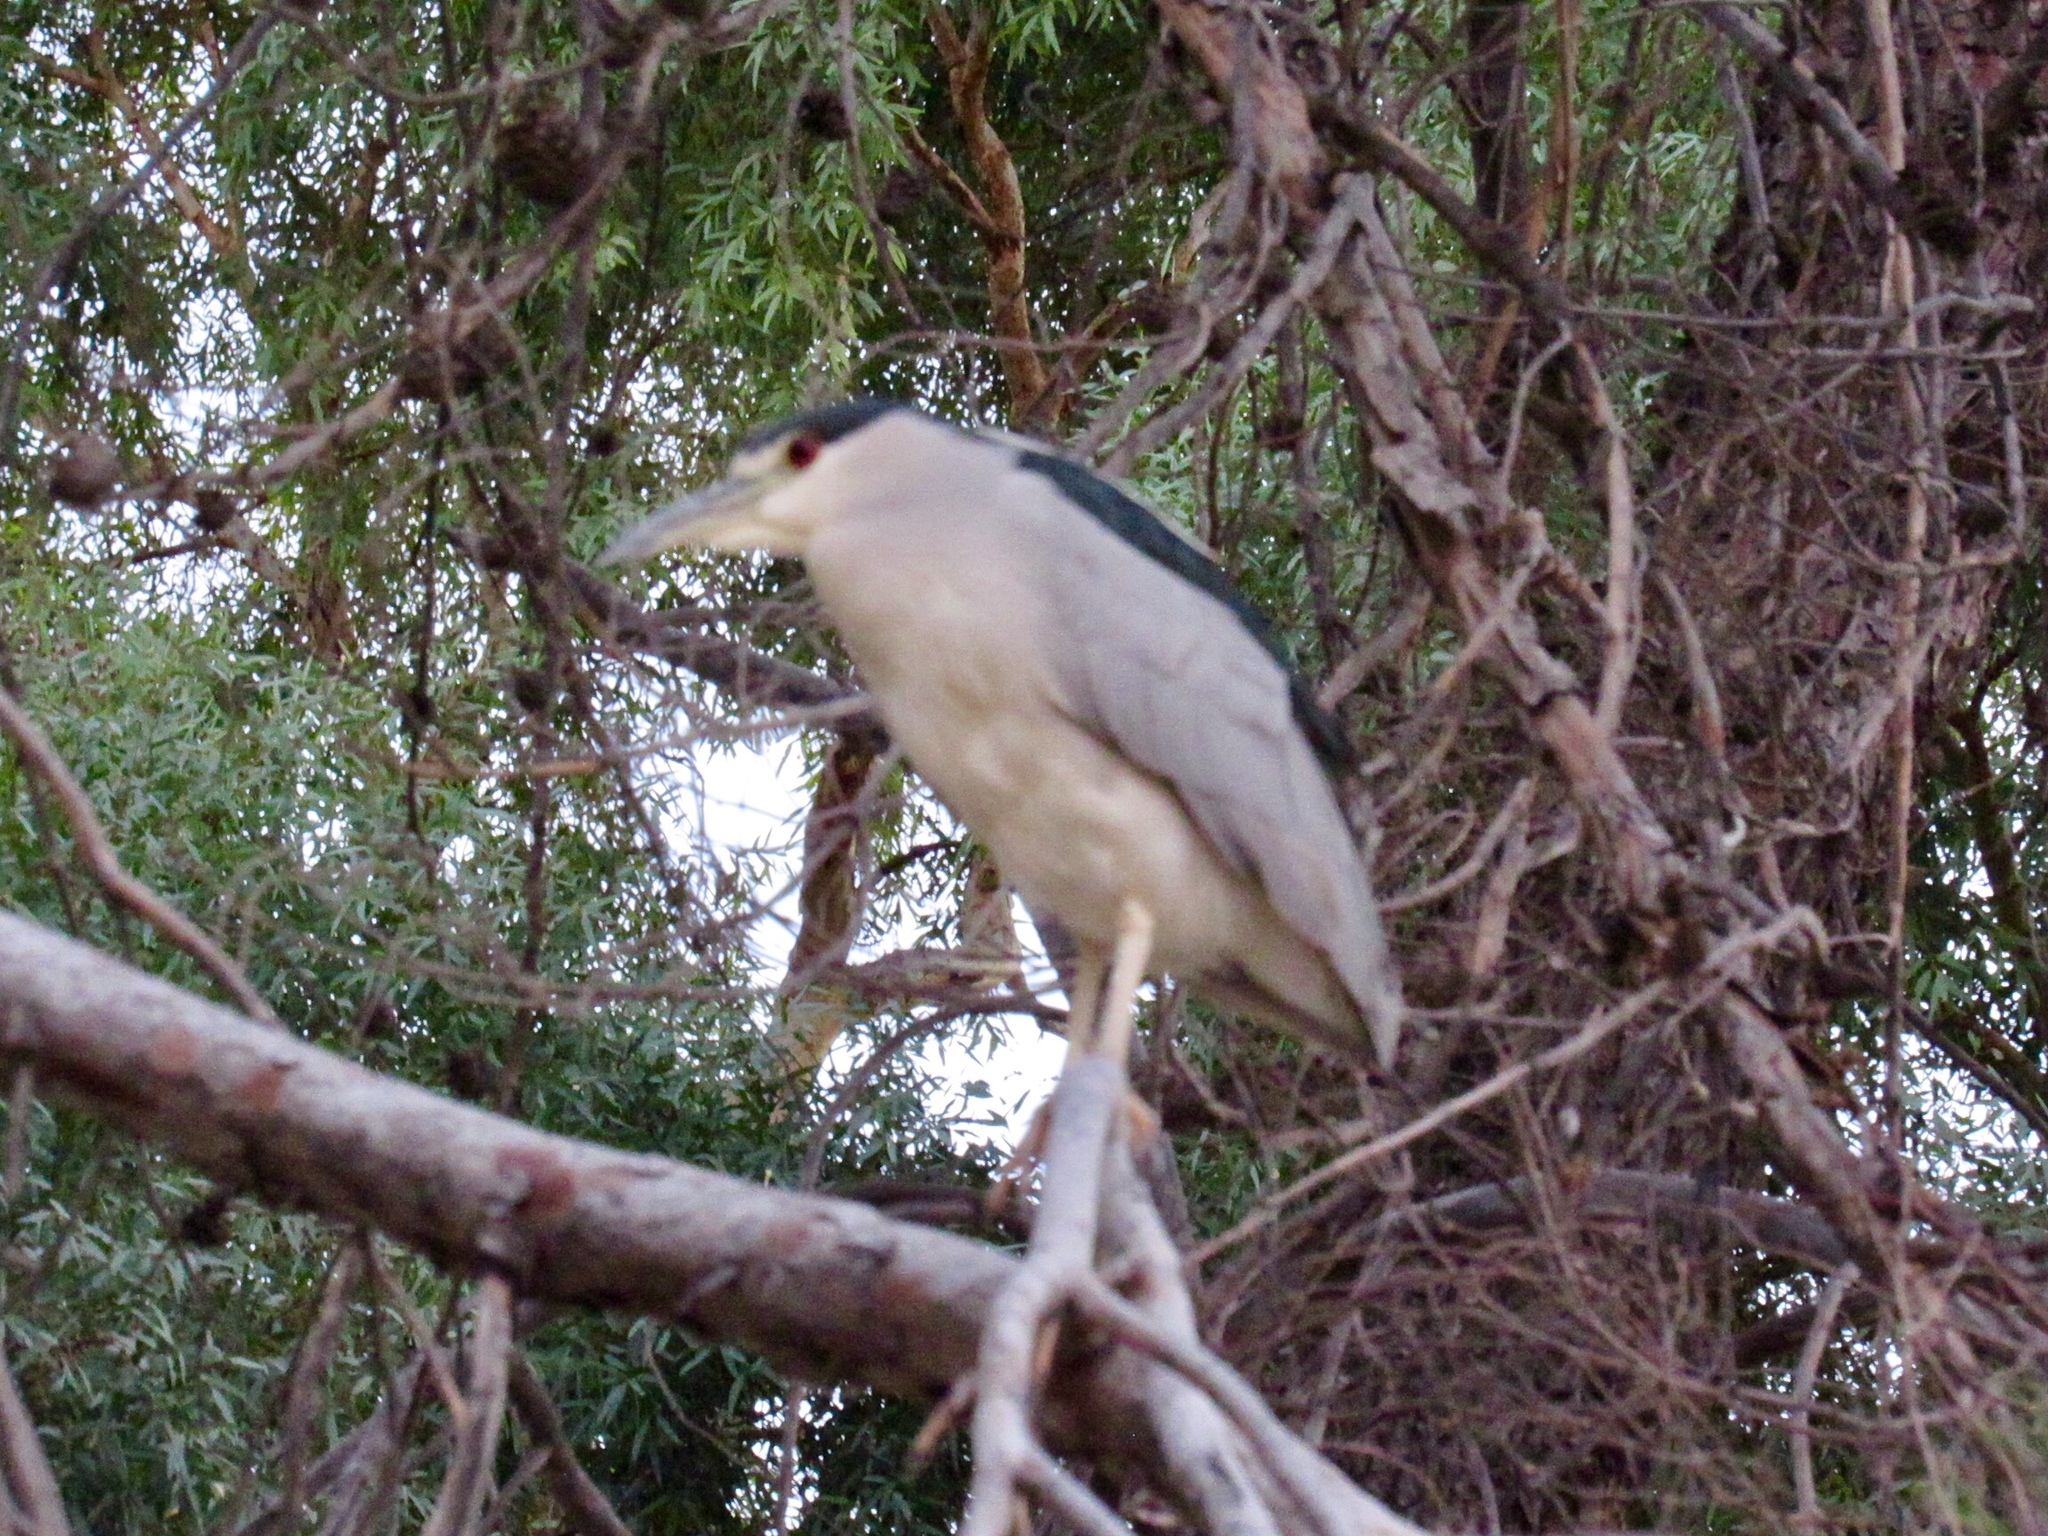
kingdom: Animalia
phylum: Chordata
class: Aves
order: Pelecaniformes
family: Ardeidae
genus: Nycticorax
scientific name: Nycticorax nycticorax
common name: Black-crowned night heron
